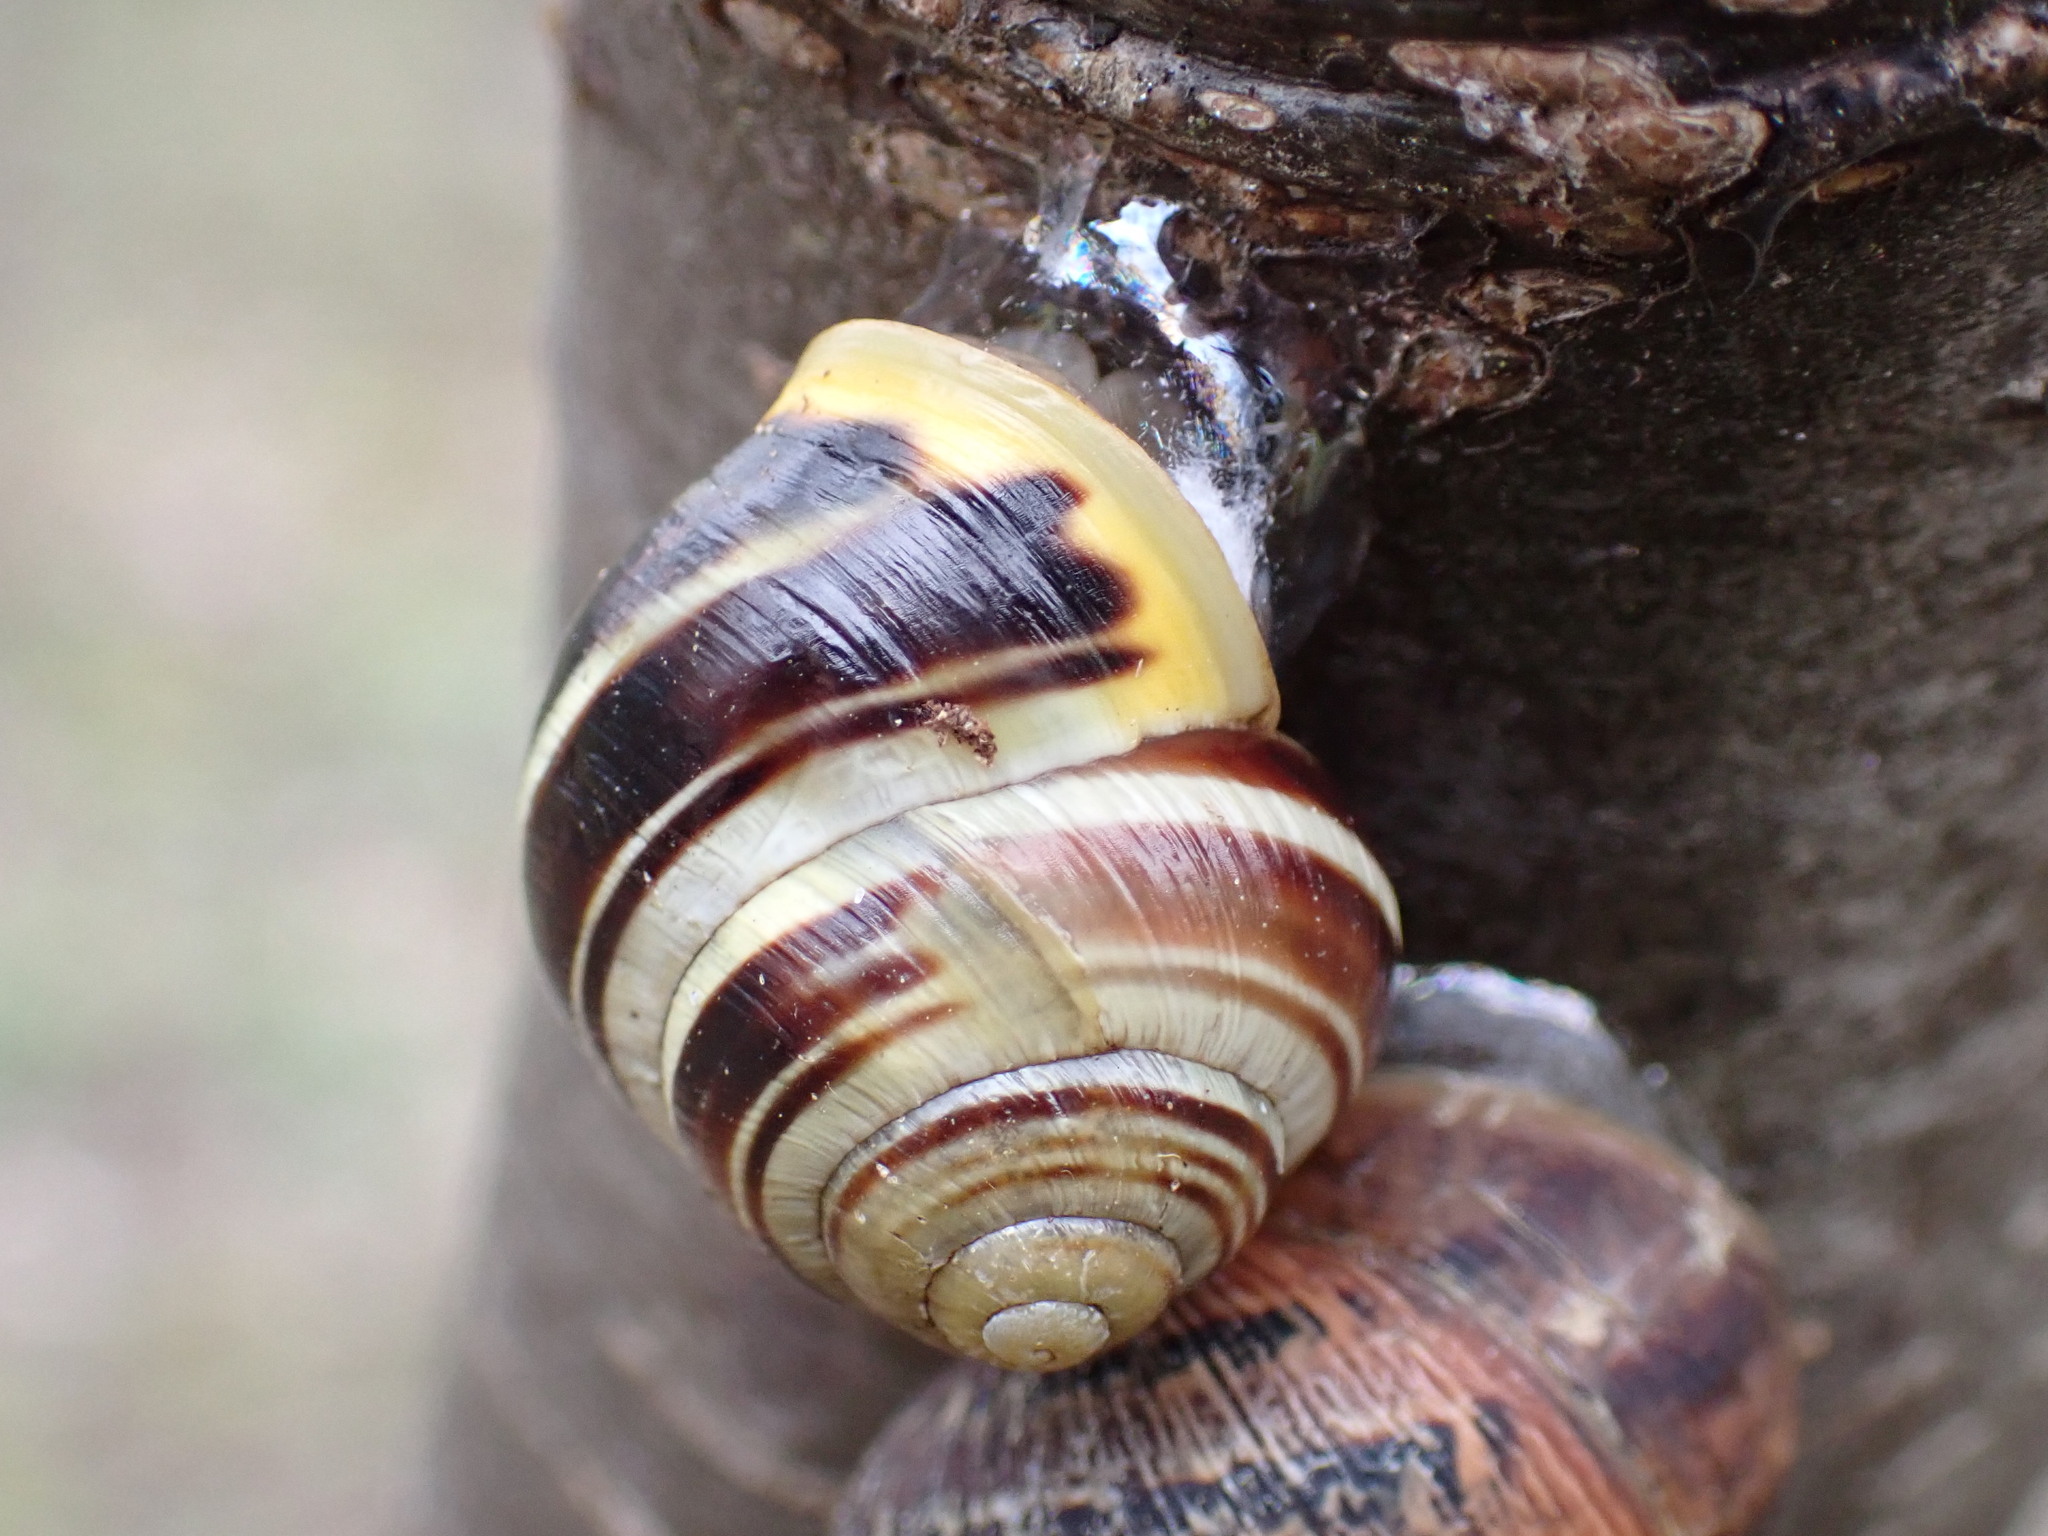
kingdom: Animalia
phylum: Mollusca
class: Gastropoda
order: Stylommatophora
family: Helicidae
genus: Cepaea
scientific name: Cepaea hortensis
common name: White-lip gardensnail
